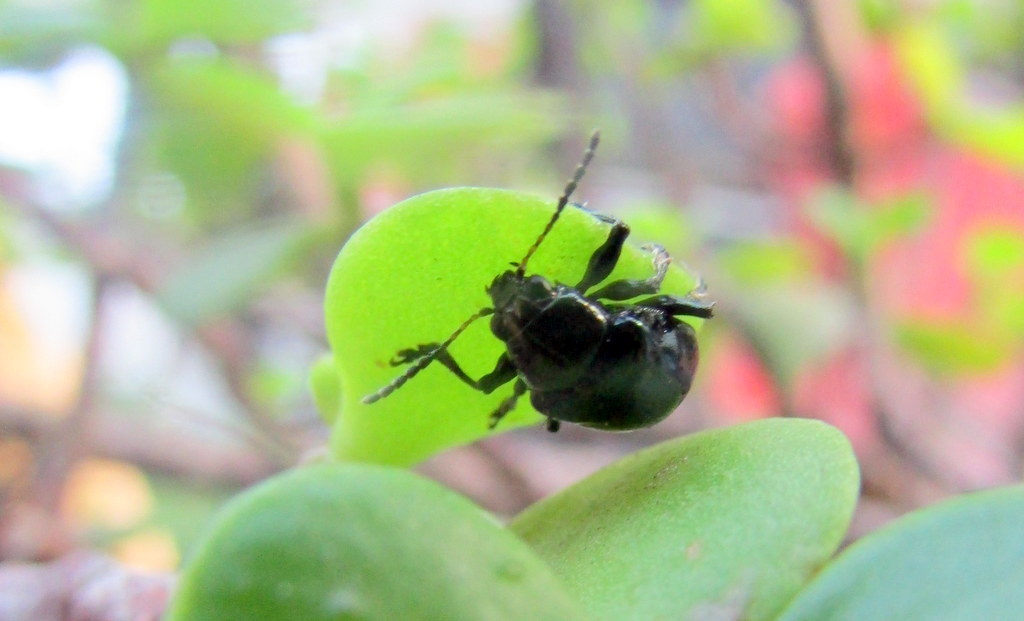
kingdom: Animalia
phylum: Arthropoda
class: Insecta
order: Coleoptera
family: Chrysomelidae
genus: Typophorus
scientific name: Typophorus nigritus
